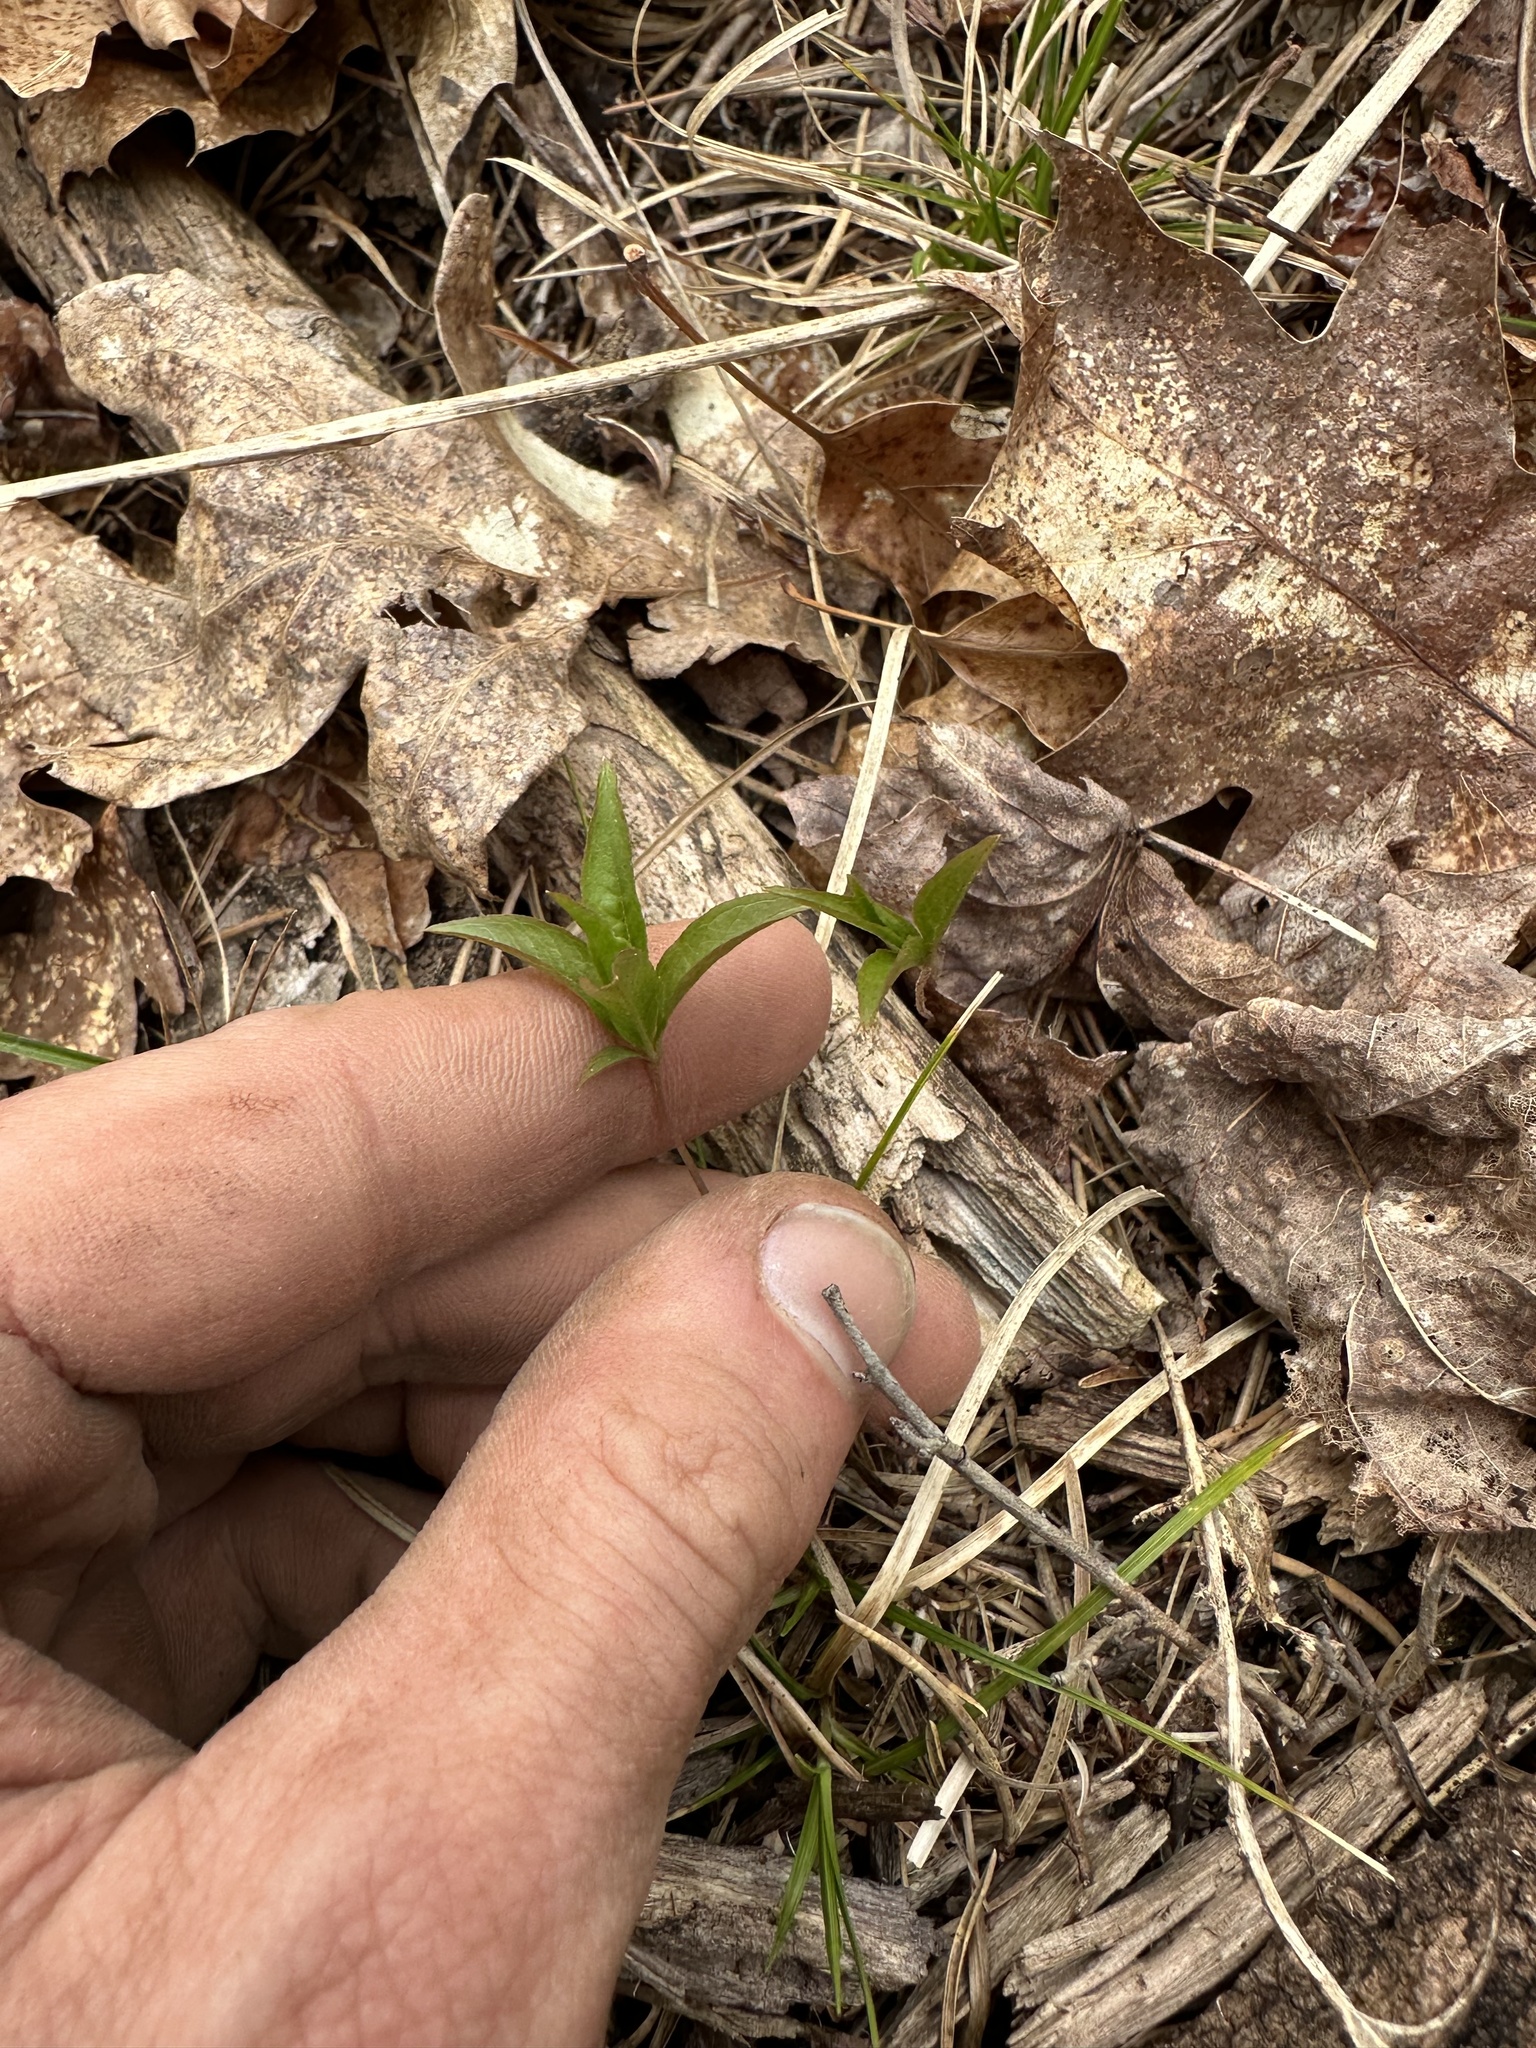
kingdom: Plantae
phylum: Tracheophyta
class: Magnoliopsida
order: Ericales
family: Primulaceae
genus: Lysimachia
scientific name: Lysimachia borealis
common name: American starflower
